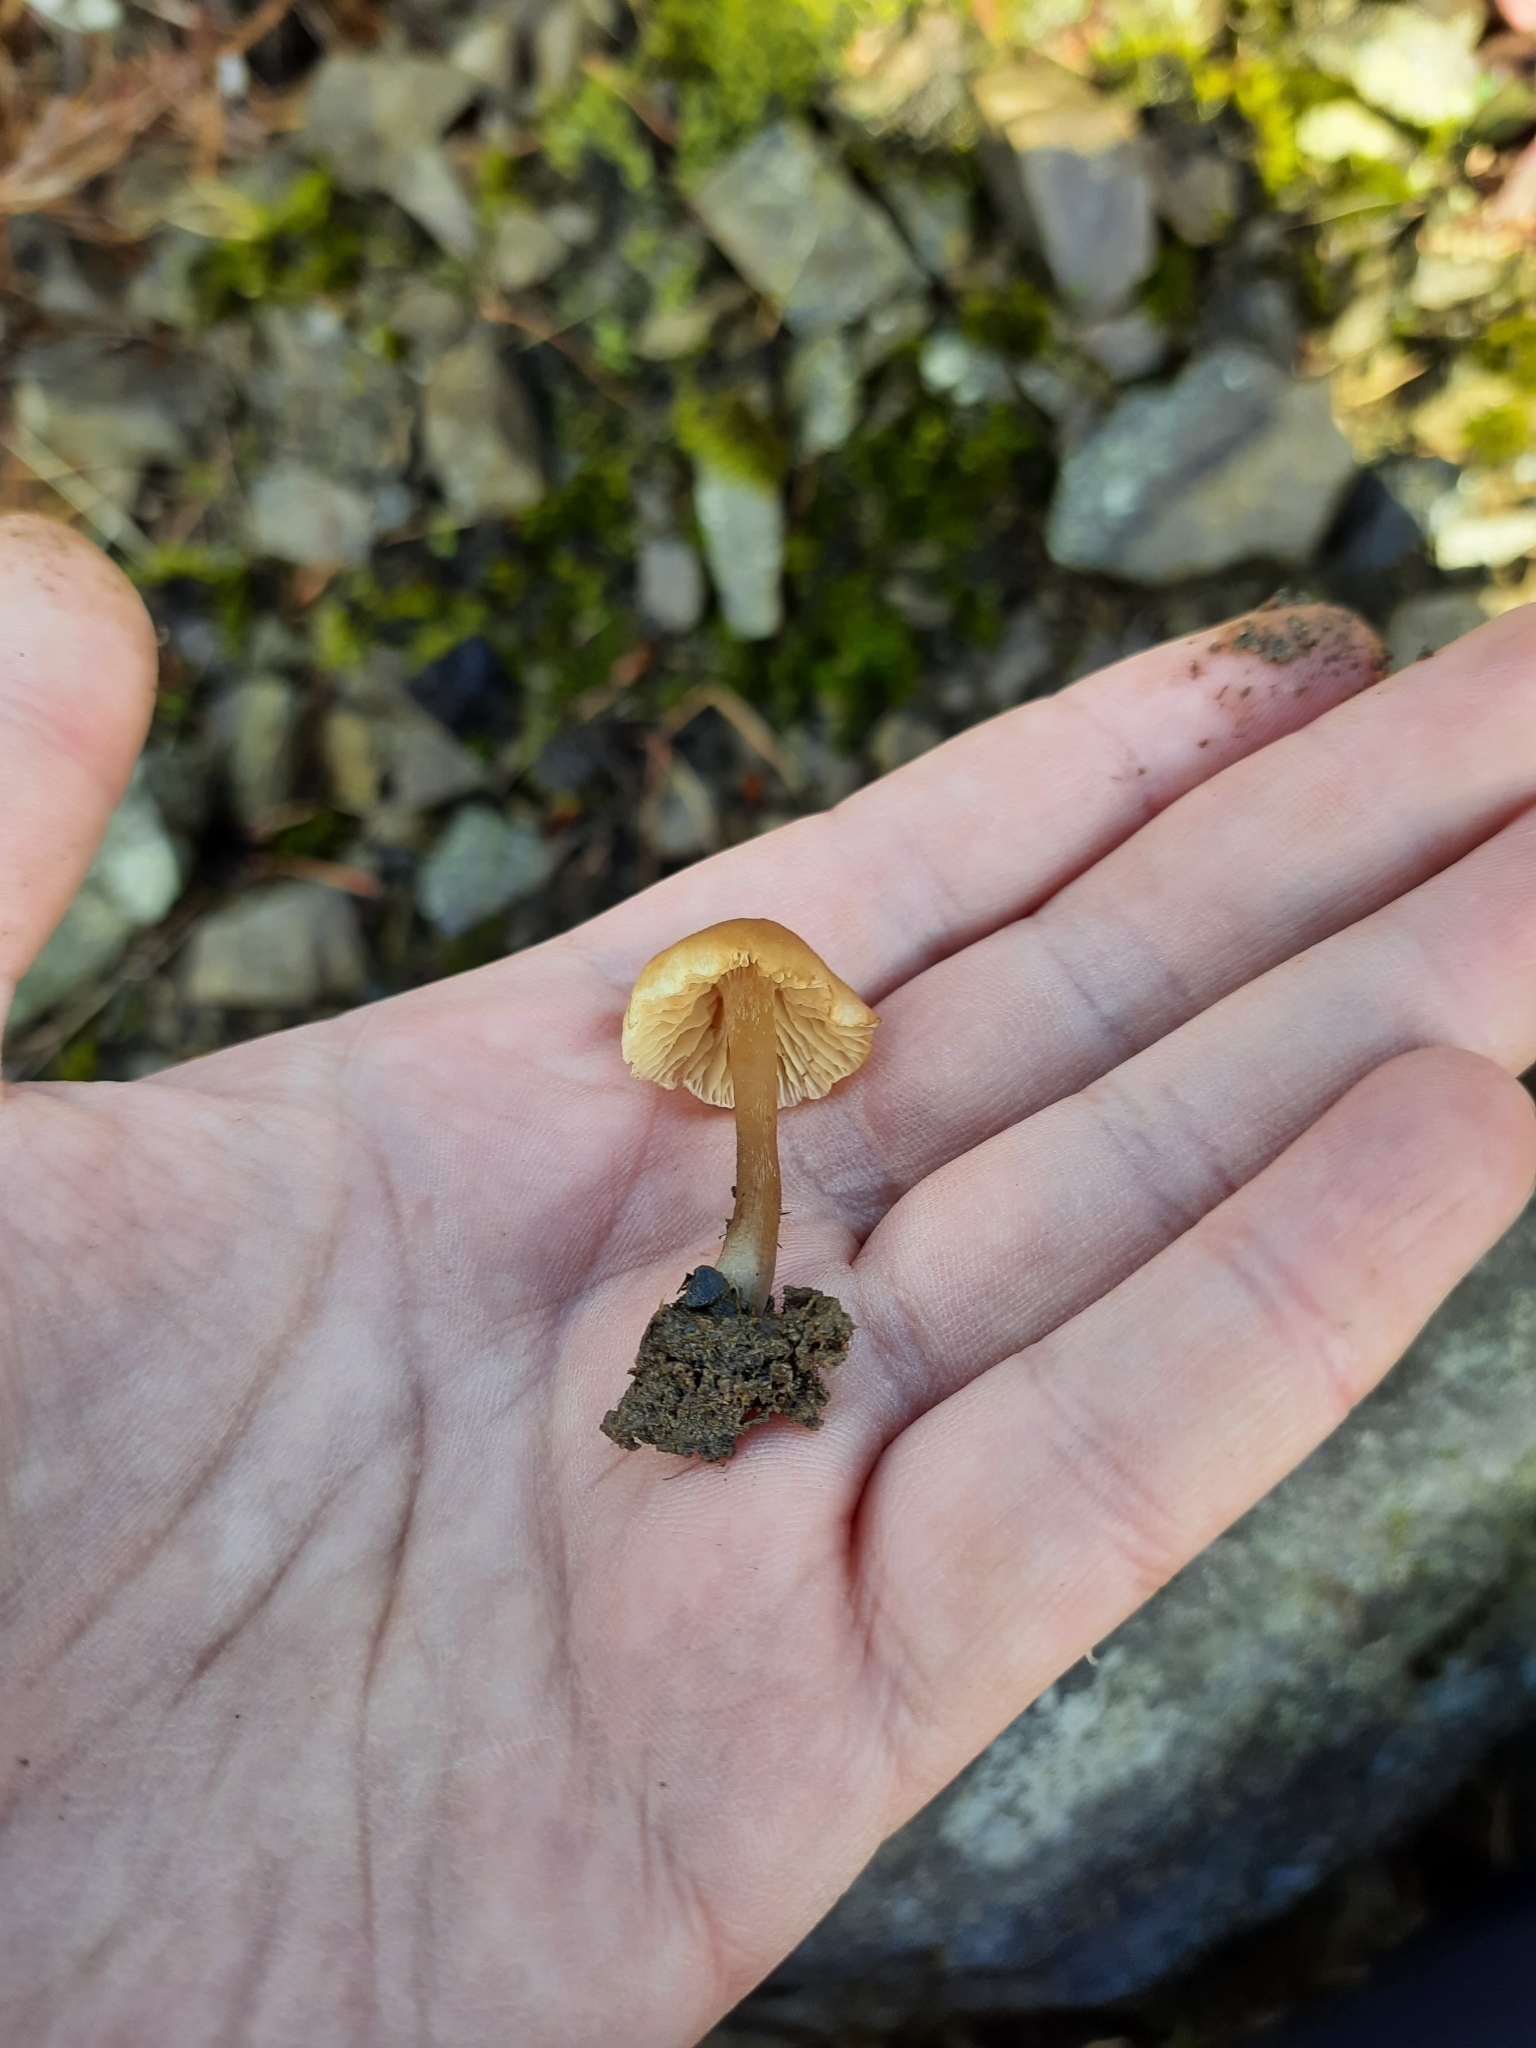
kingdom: Fungi
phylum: Basidiomycota
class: Agaricomycetes
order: Agaricales
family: Tubariaceae
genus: Tubaria
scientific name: Tubaria furfuracea
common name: Scurfy twiglet
